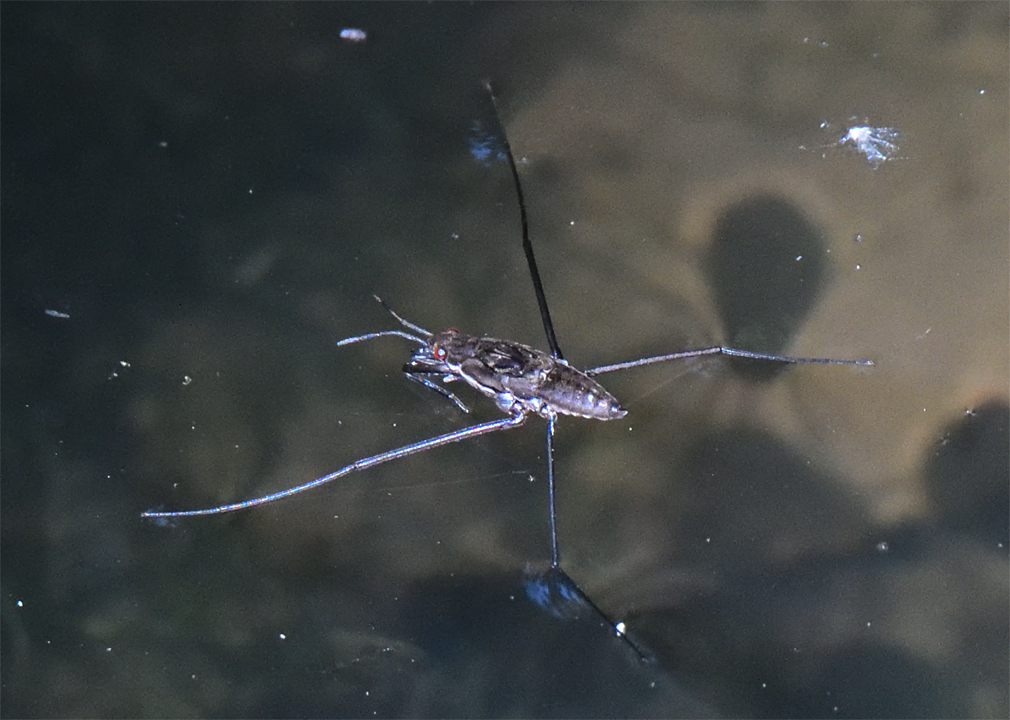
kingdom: Animalia
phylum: Arthropoda
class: Insecta
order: Hemiptera
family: Gerridae
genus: Aquarius
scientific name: Aquarius remigis
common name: Common water strider
